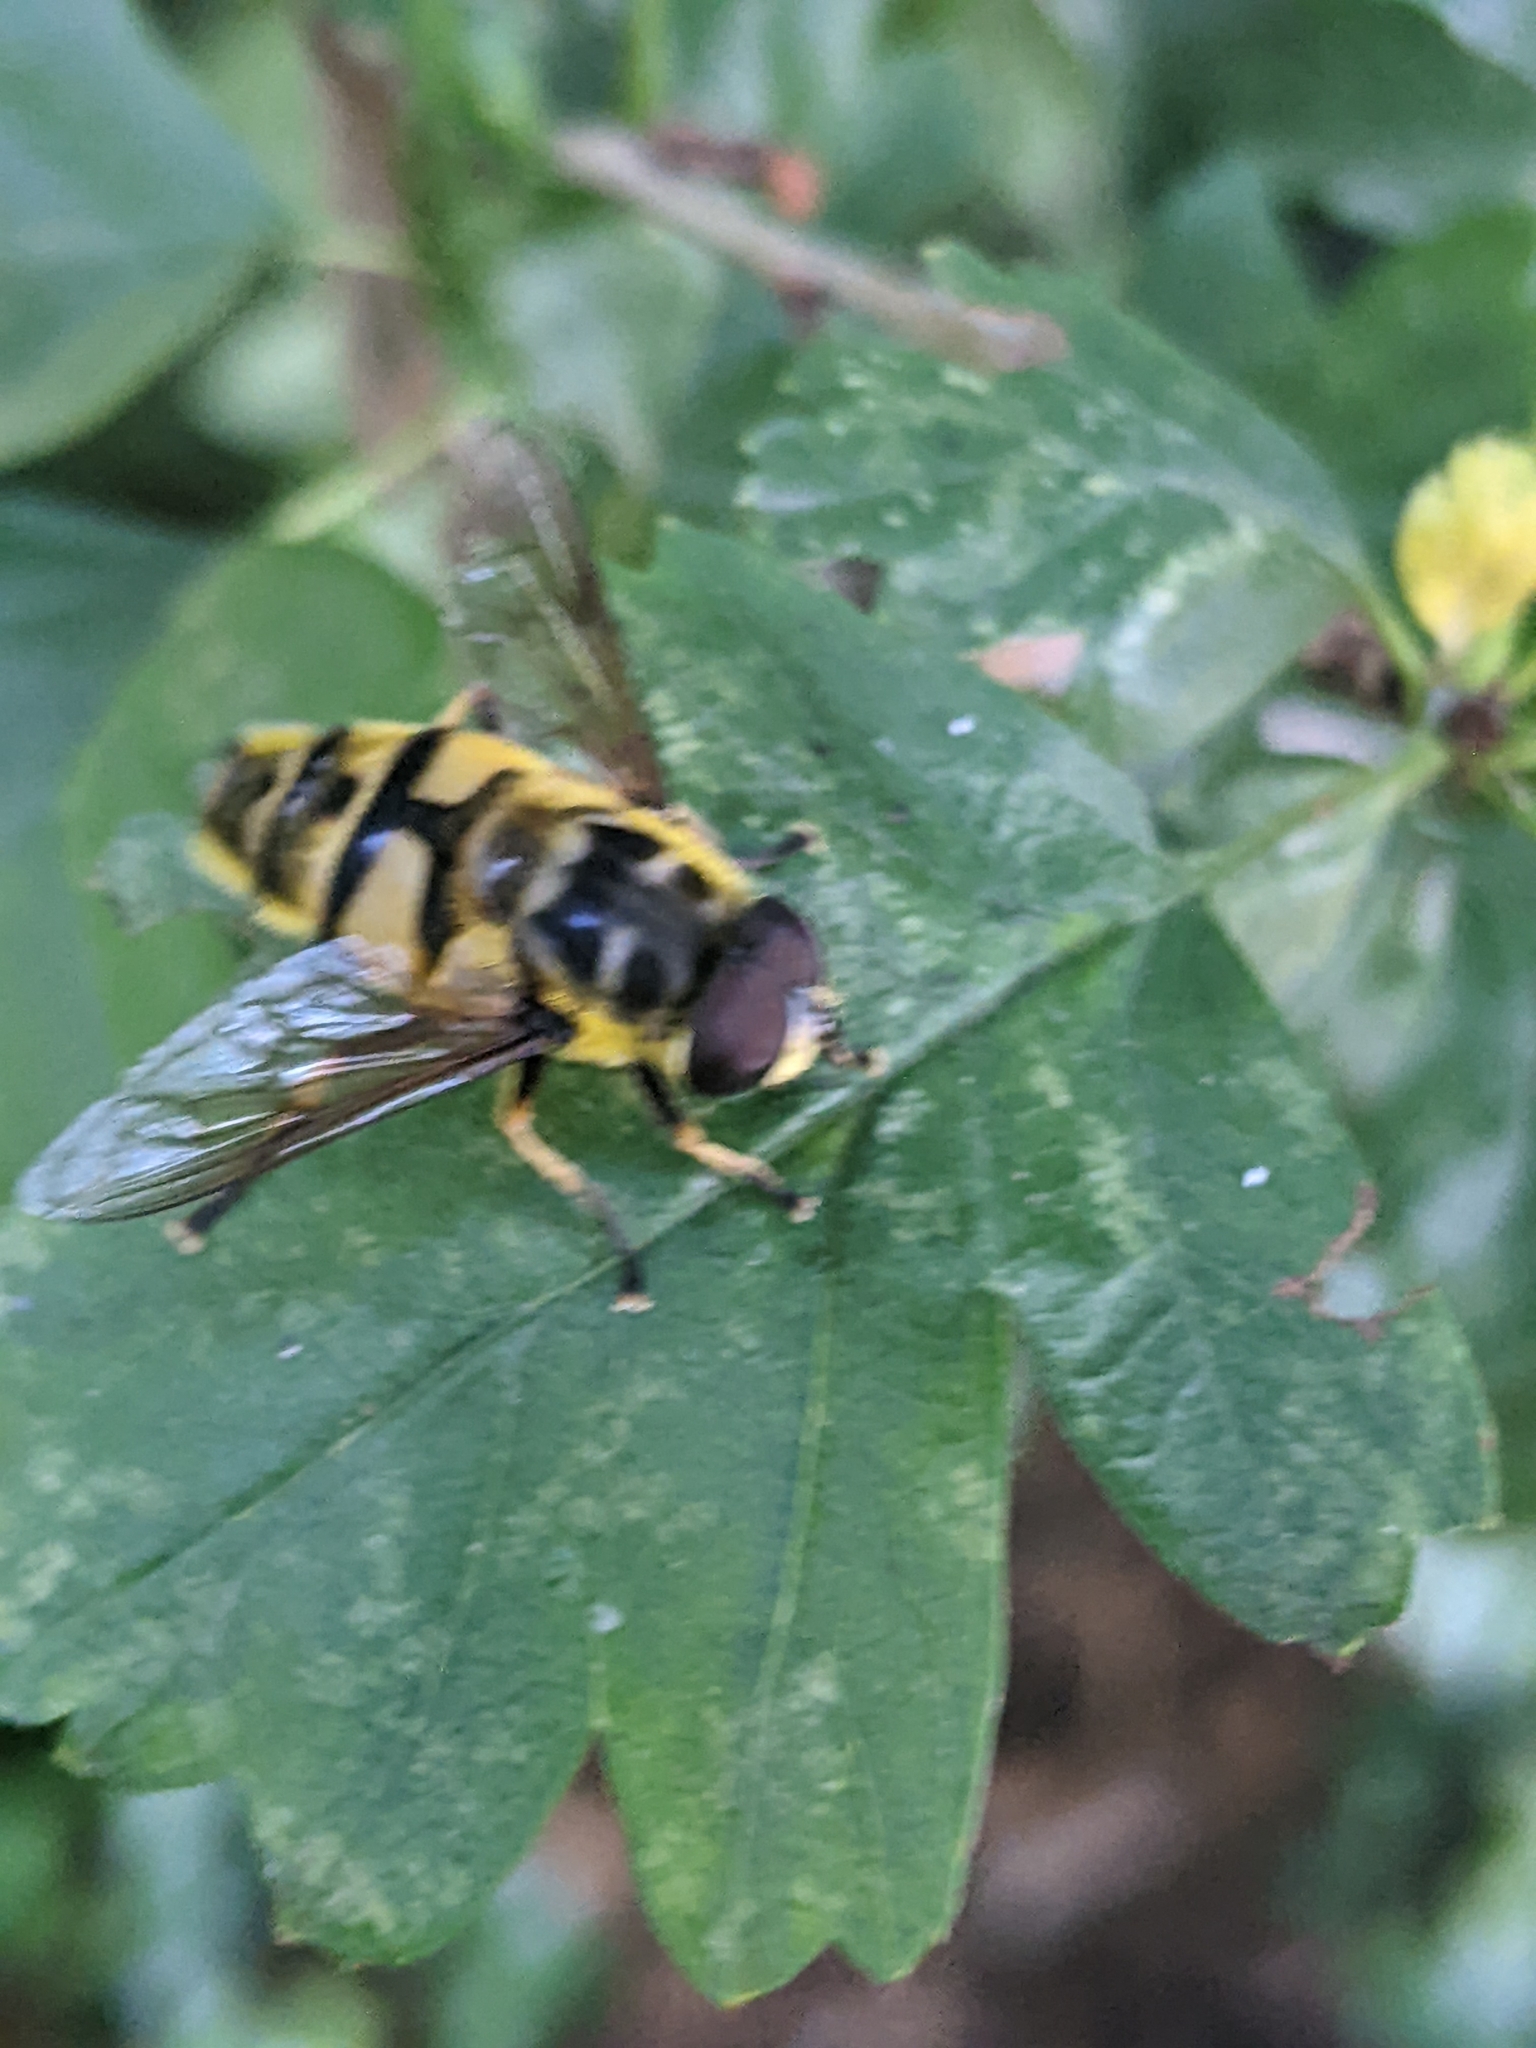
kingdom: Animalia
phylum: Arthropoda
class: Insecta
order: Diptera
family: Syrphidae
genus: Myathropa
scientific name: Myathropa florea
